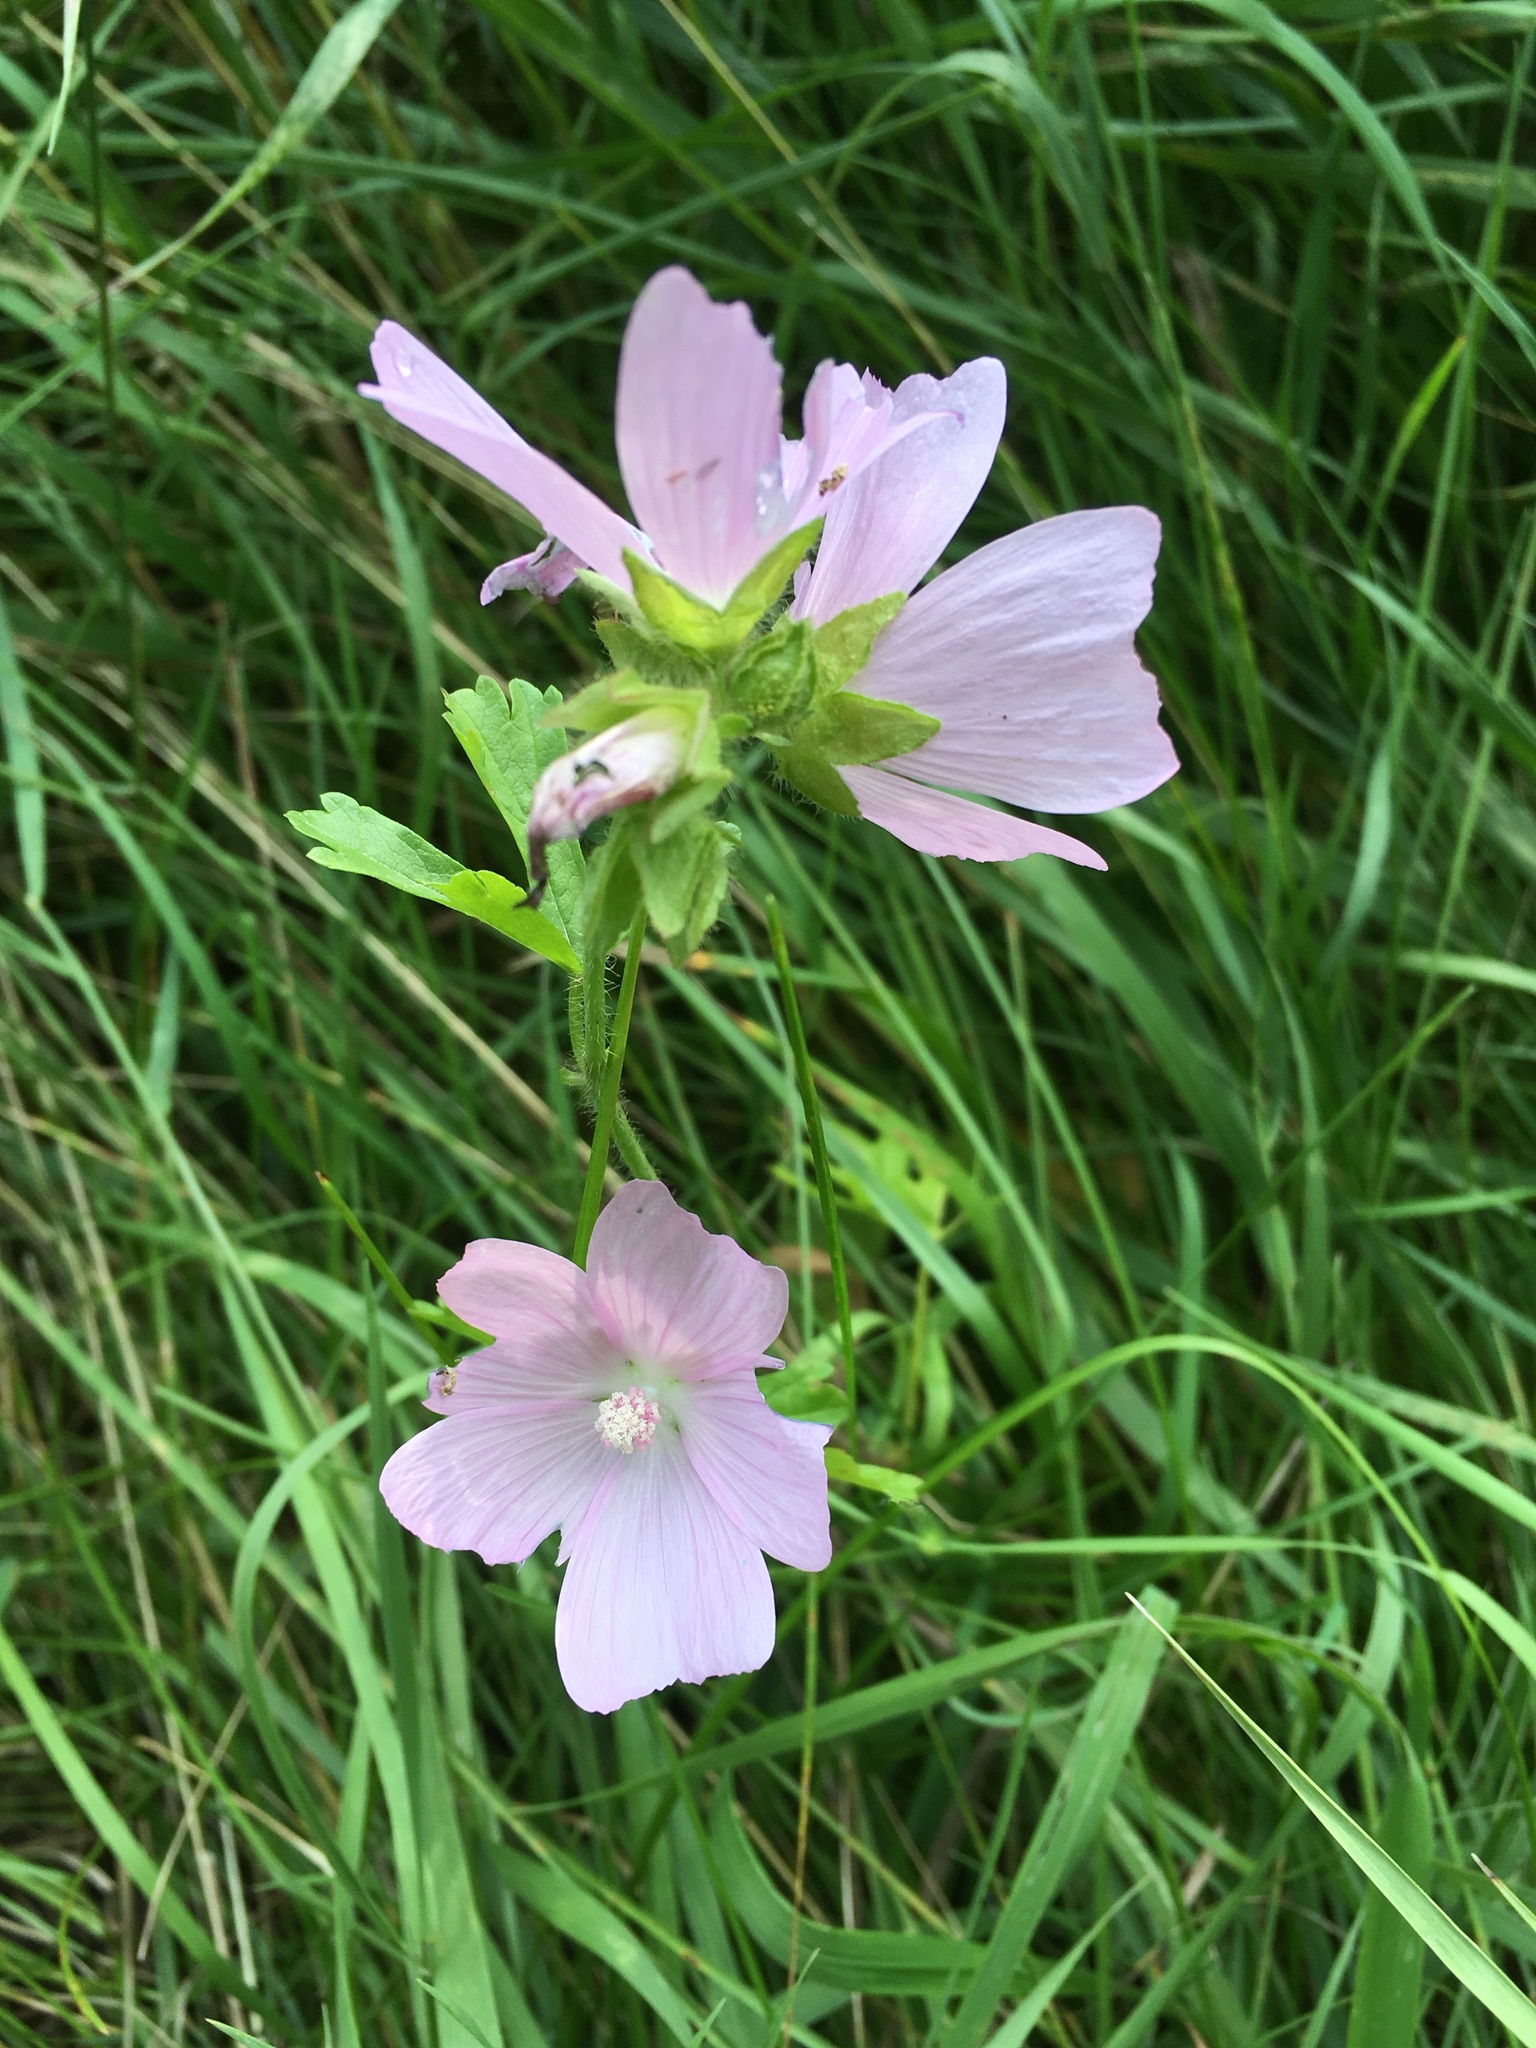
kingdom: Plantae
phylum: Tracheophyta
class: Magnoliopsida
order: Malvales
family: Malvaceae
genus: Malva
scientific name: Malva moschata
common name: Musk mallow
